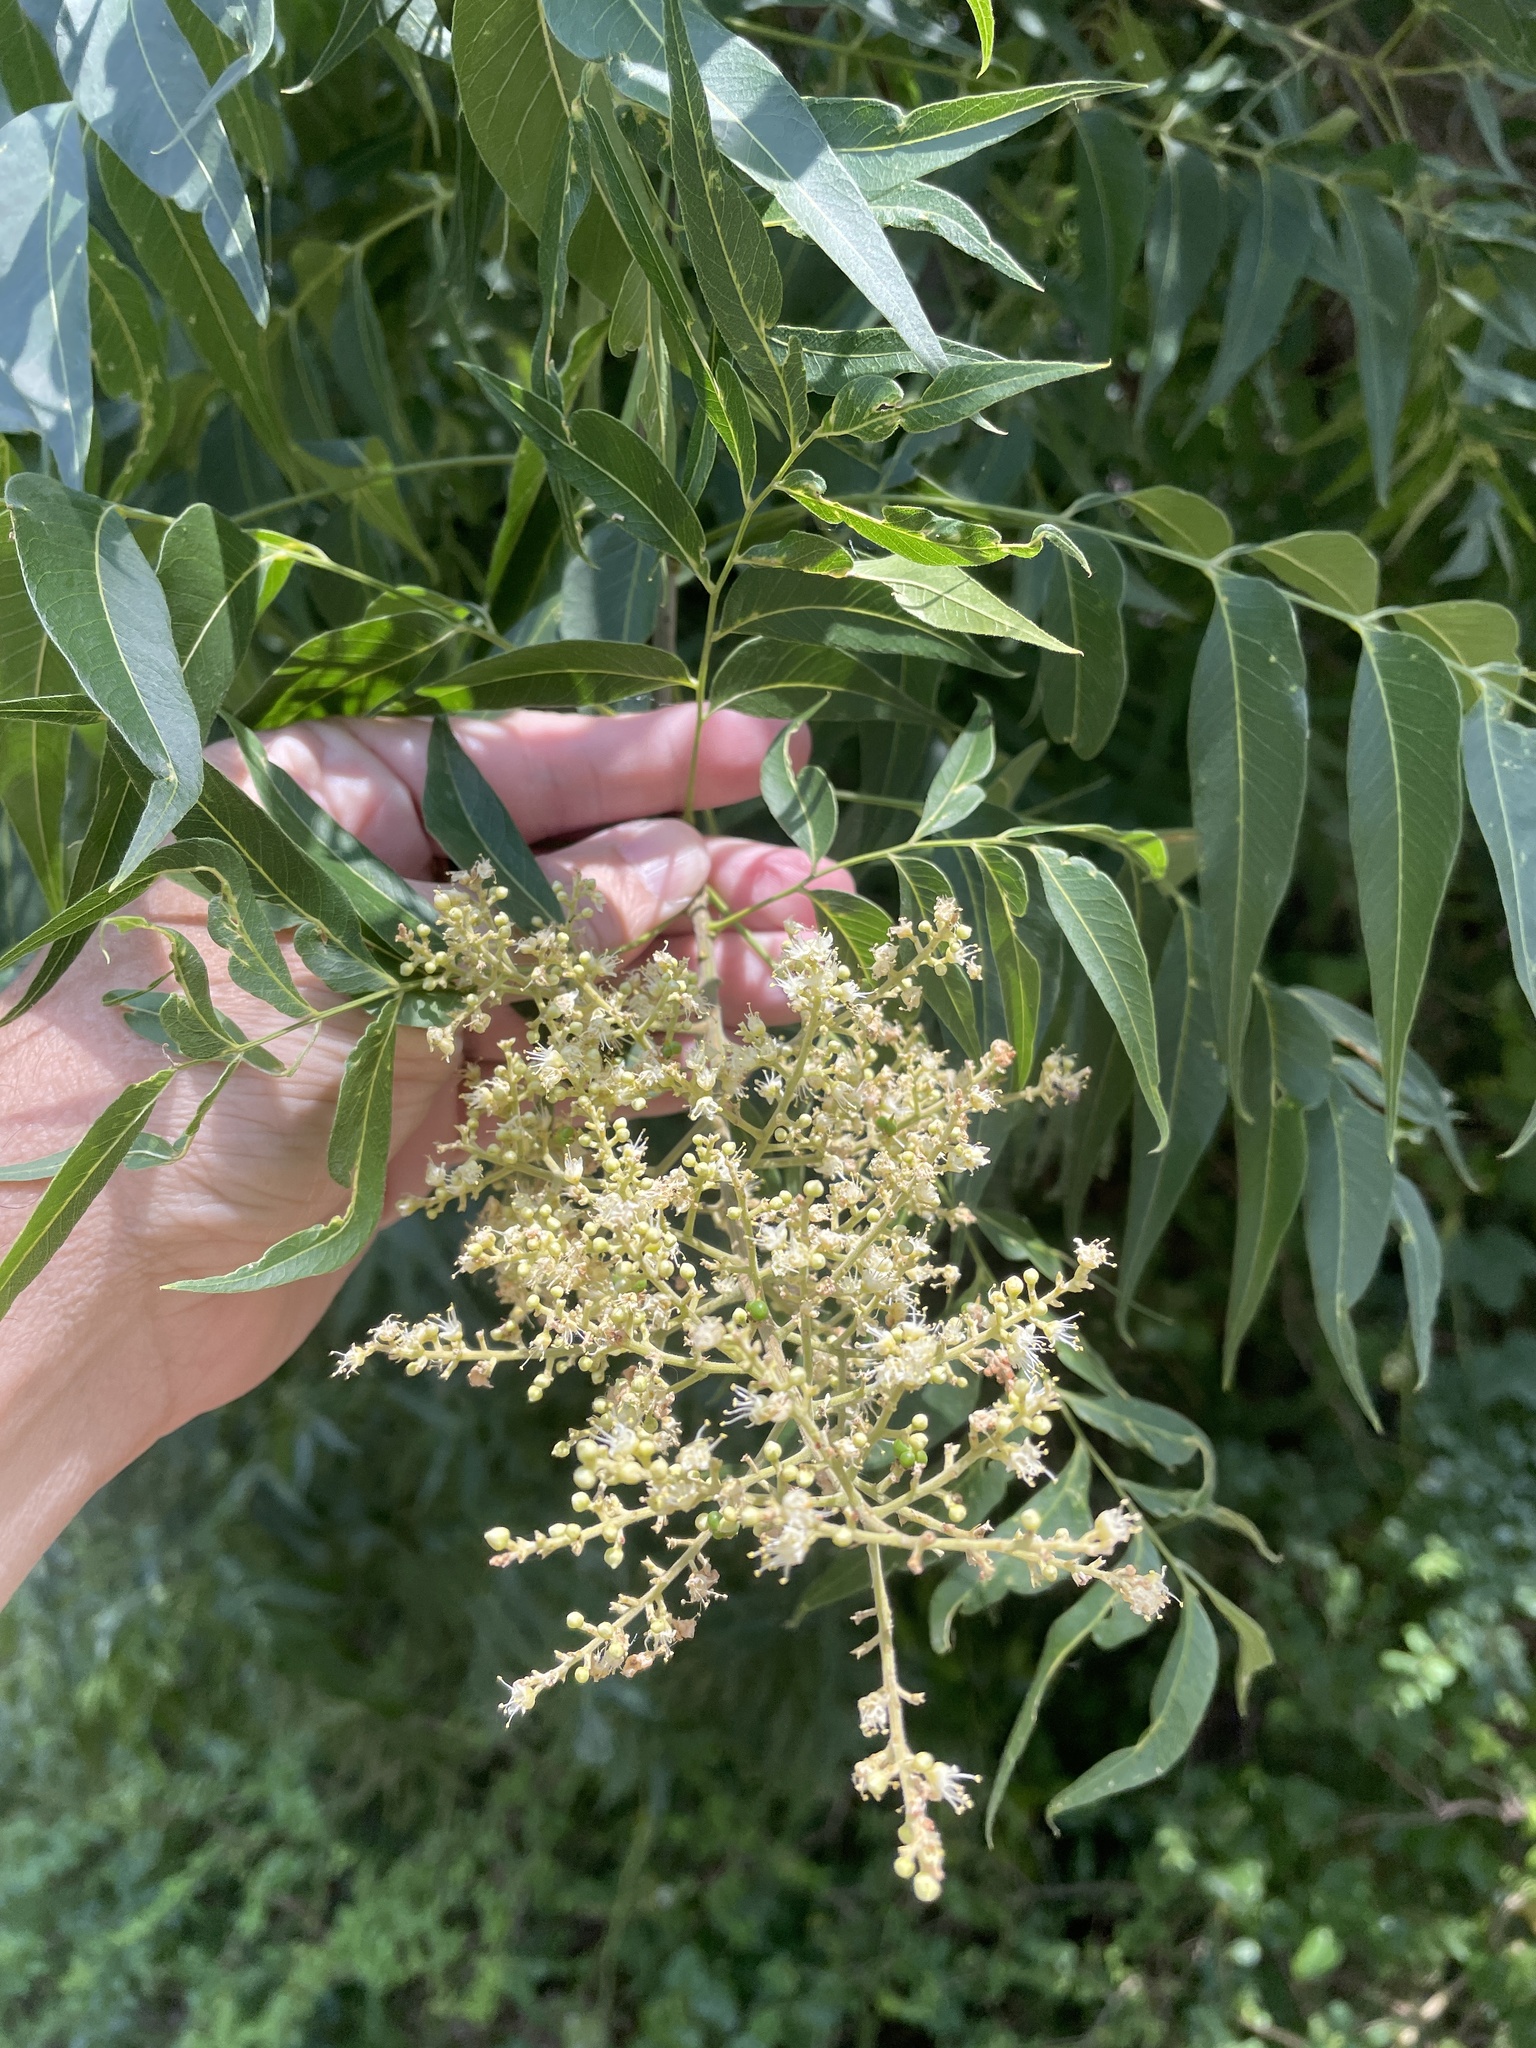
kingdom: Plantae
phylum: Tracheophyta
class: Magnoliopsida
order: Sapindales
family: Sapindaceae
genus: Sapindus
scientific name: Sapindus drummondii
